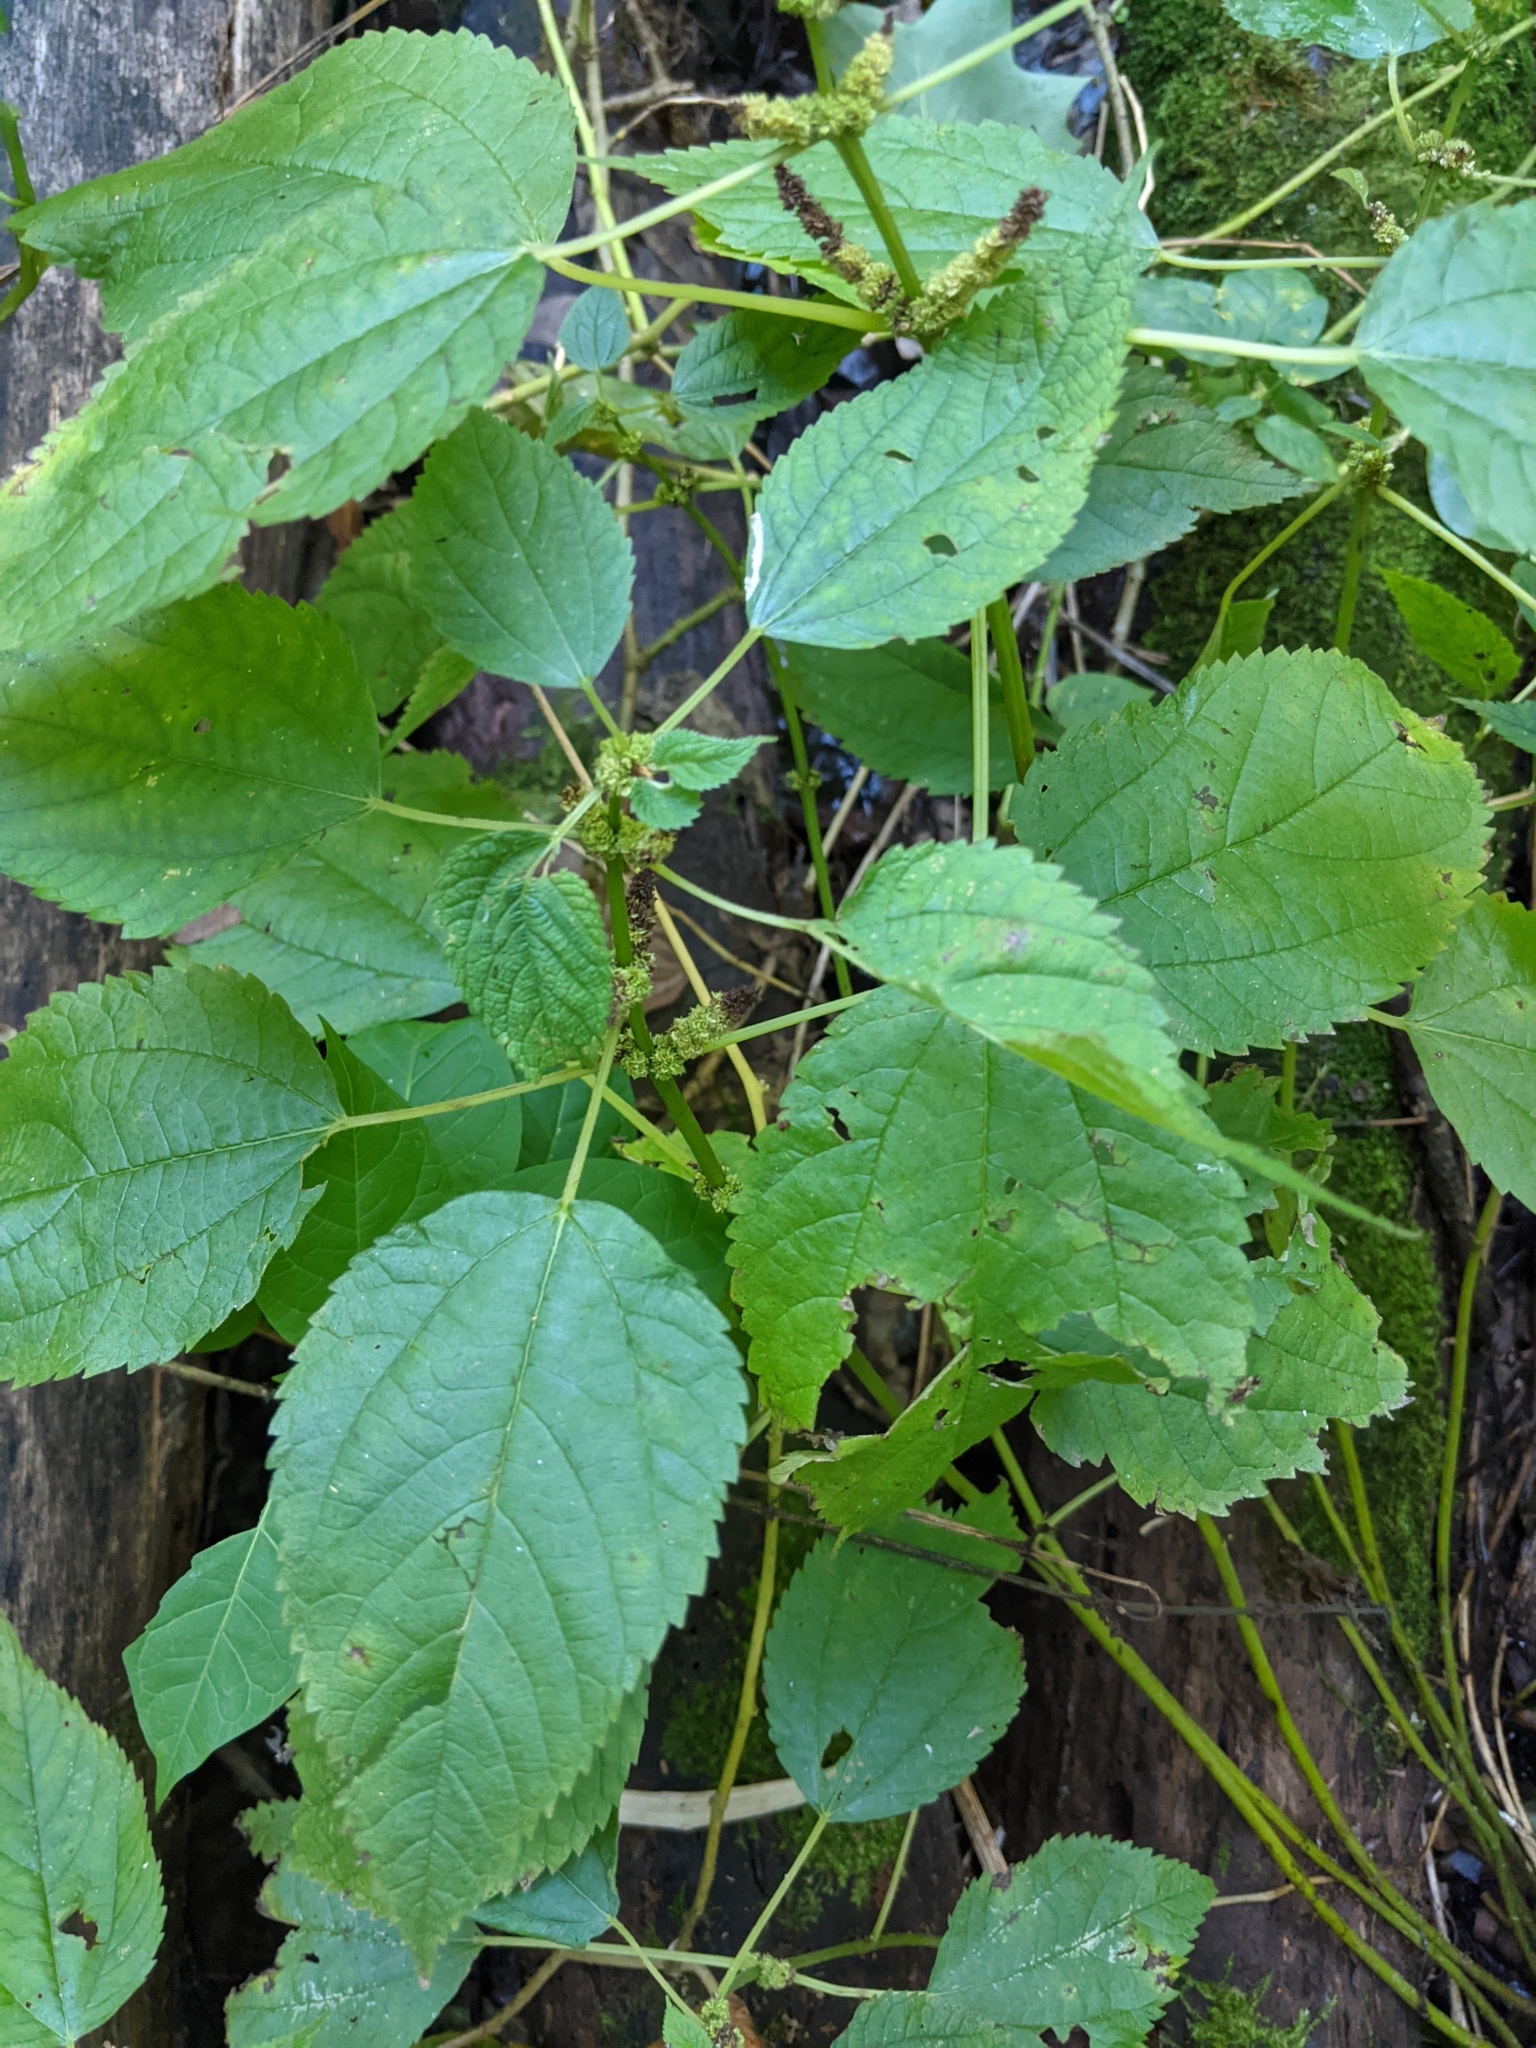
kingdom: Plantae
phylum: Tracheophyta
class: Magnoliopsida
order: Rosales
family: Urticaceae
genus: Boehmeria
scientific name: Boehmeria cylindrica
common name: Bog-hemp
